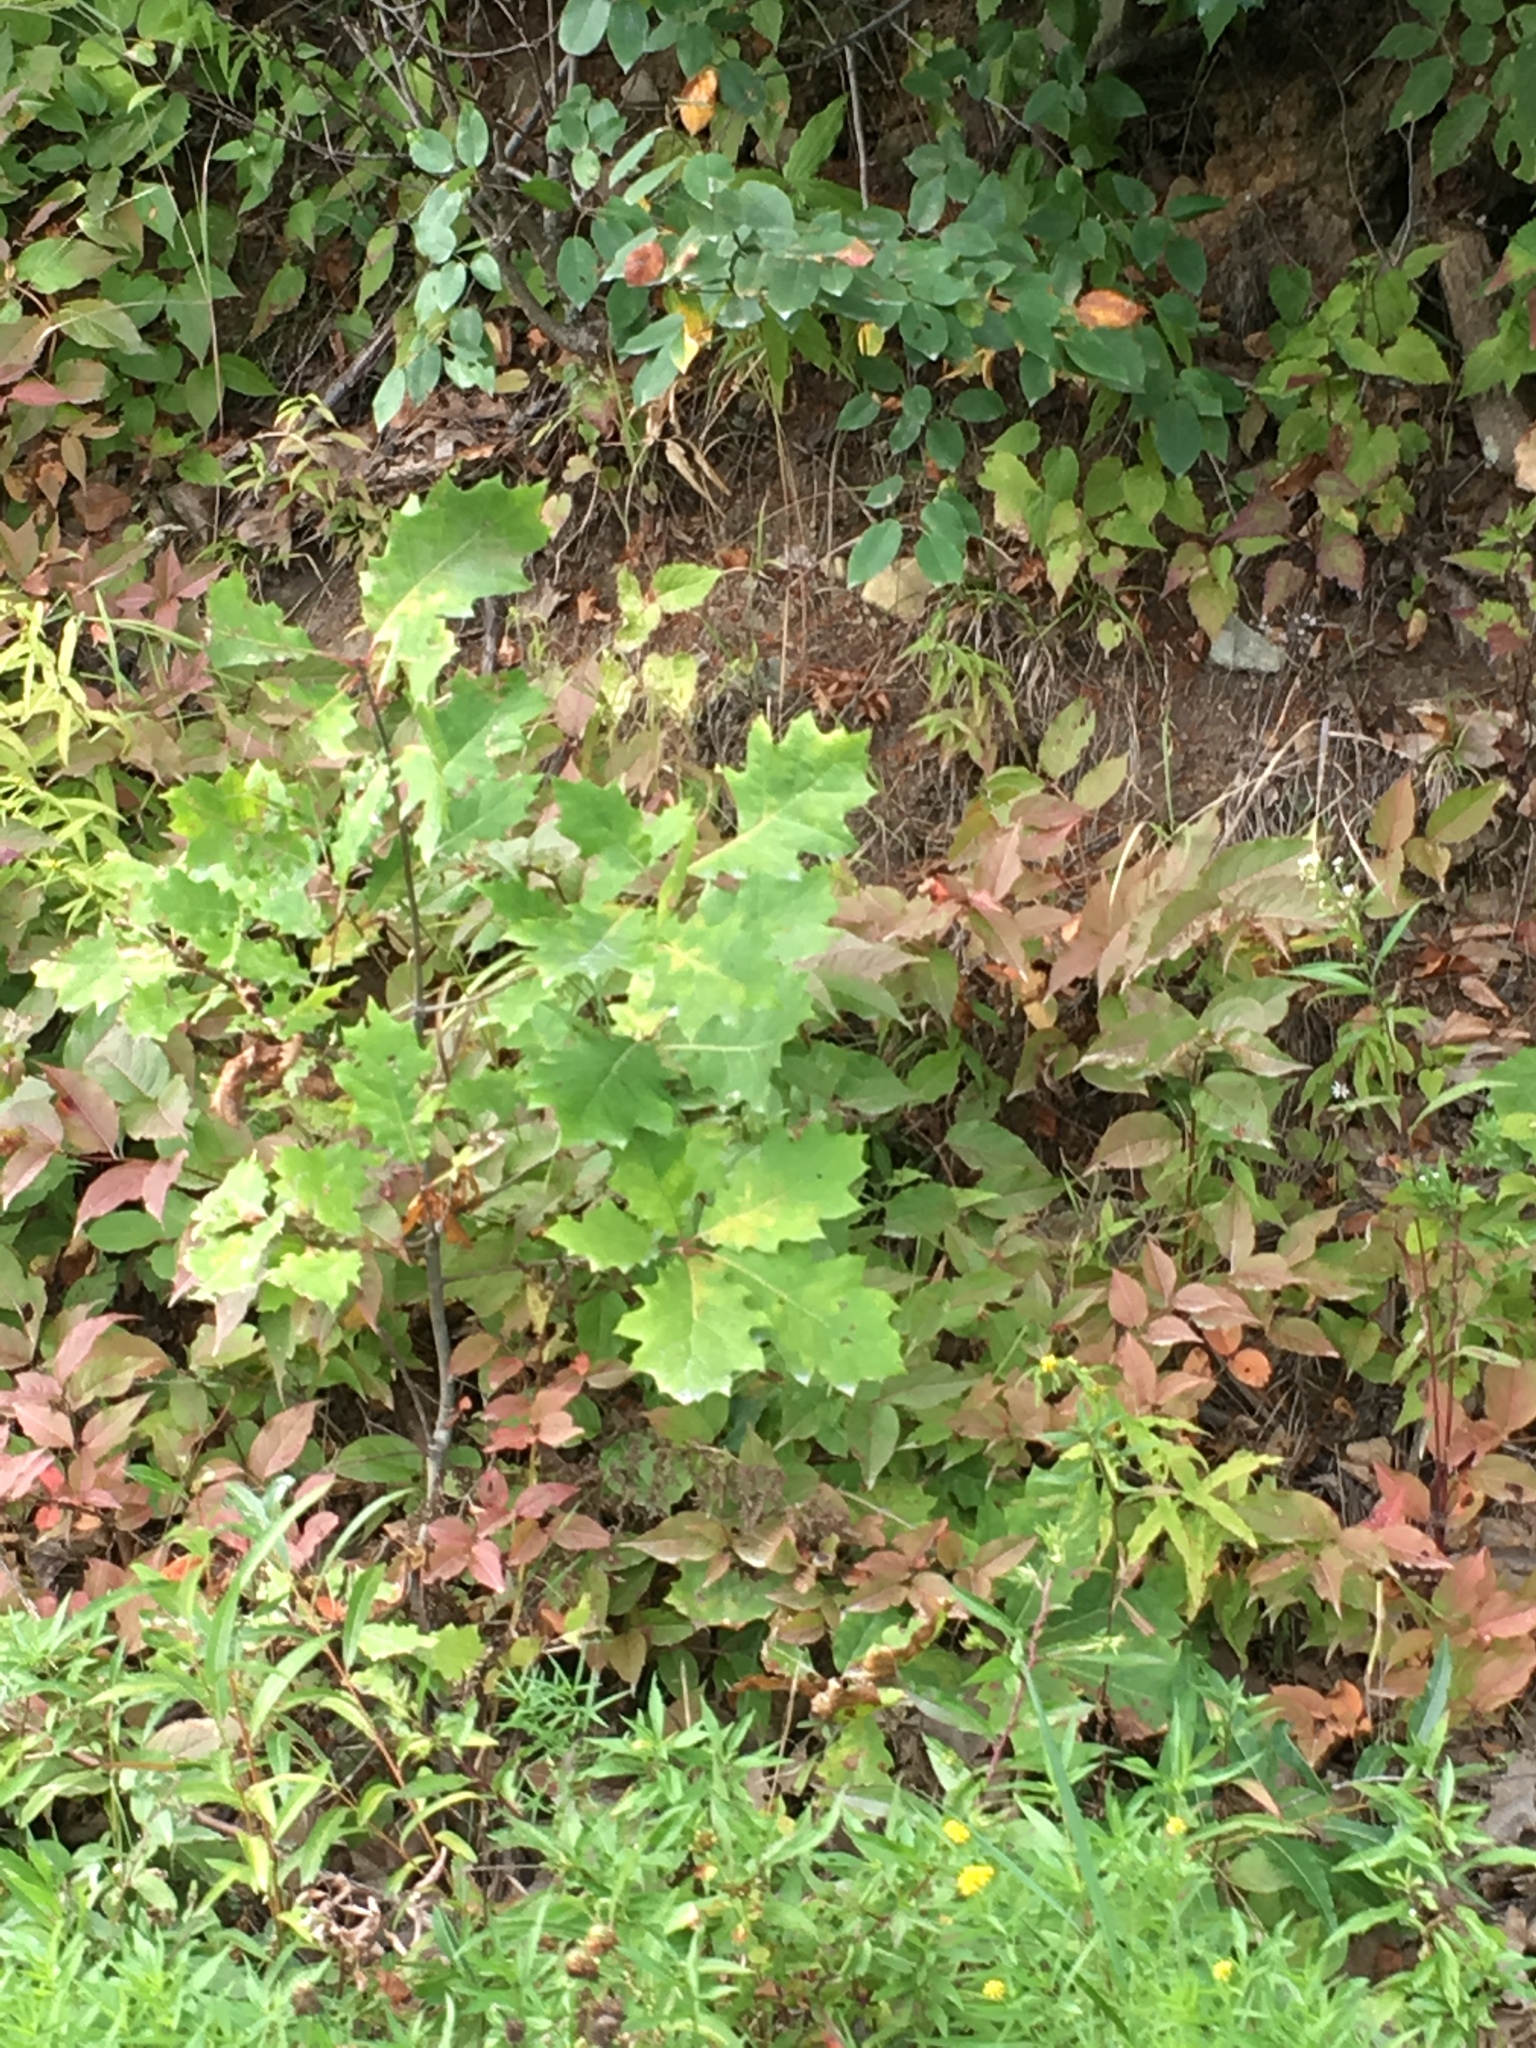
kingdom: Plantae
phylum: Tracheophyta
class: Magnoliopsida
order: Fagales
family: Fagaceae
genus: Quercus
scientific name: Quercus rubra
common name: Red oak
